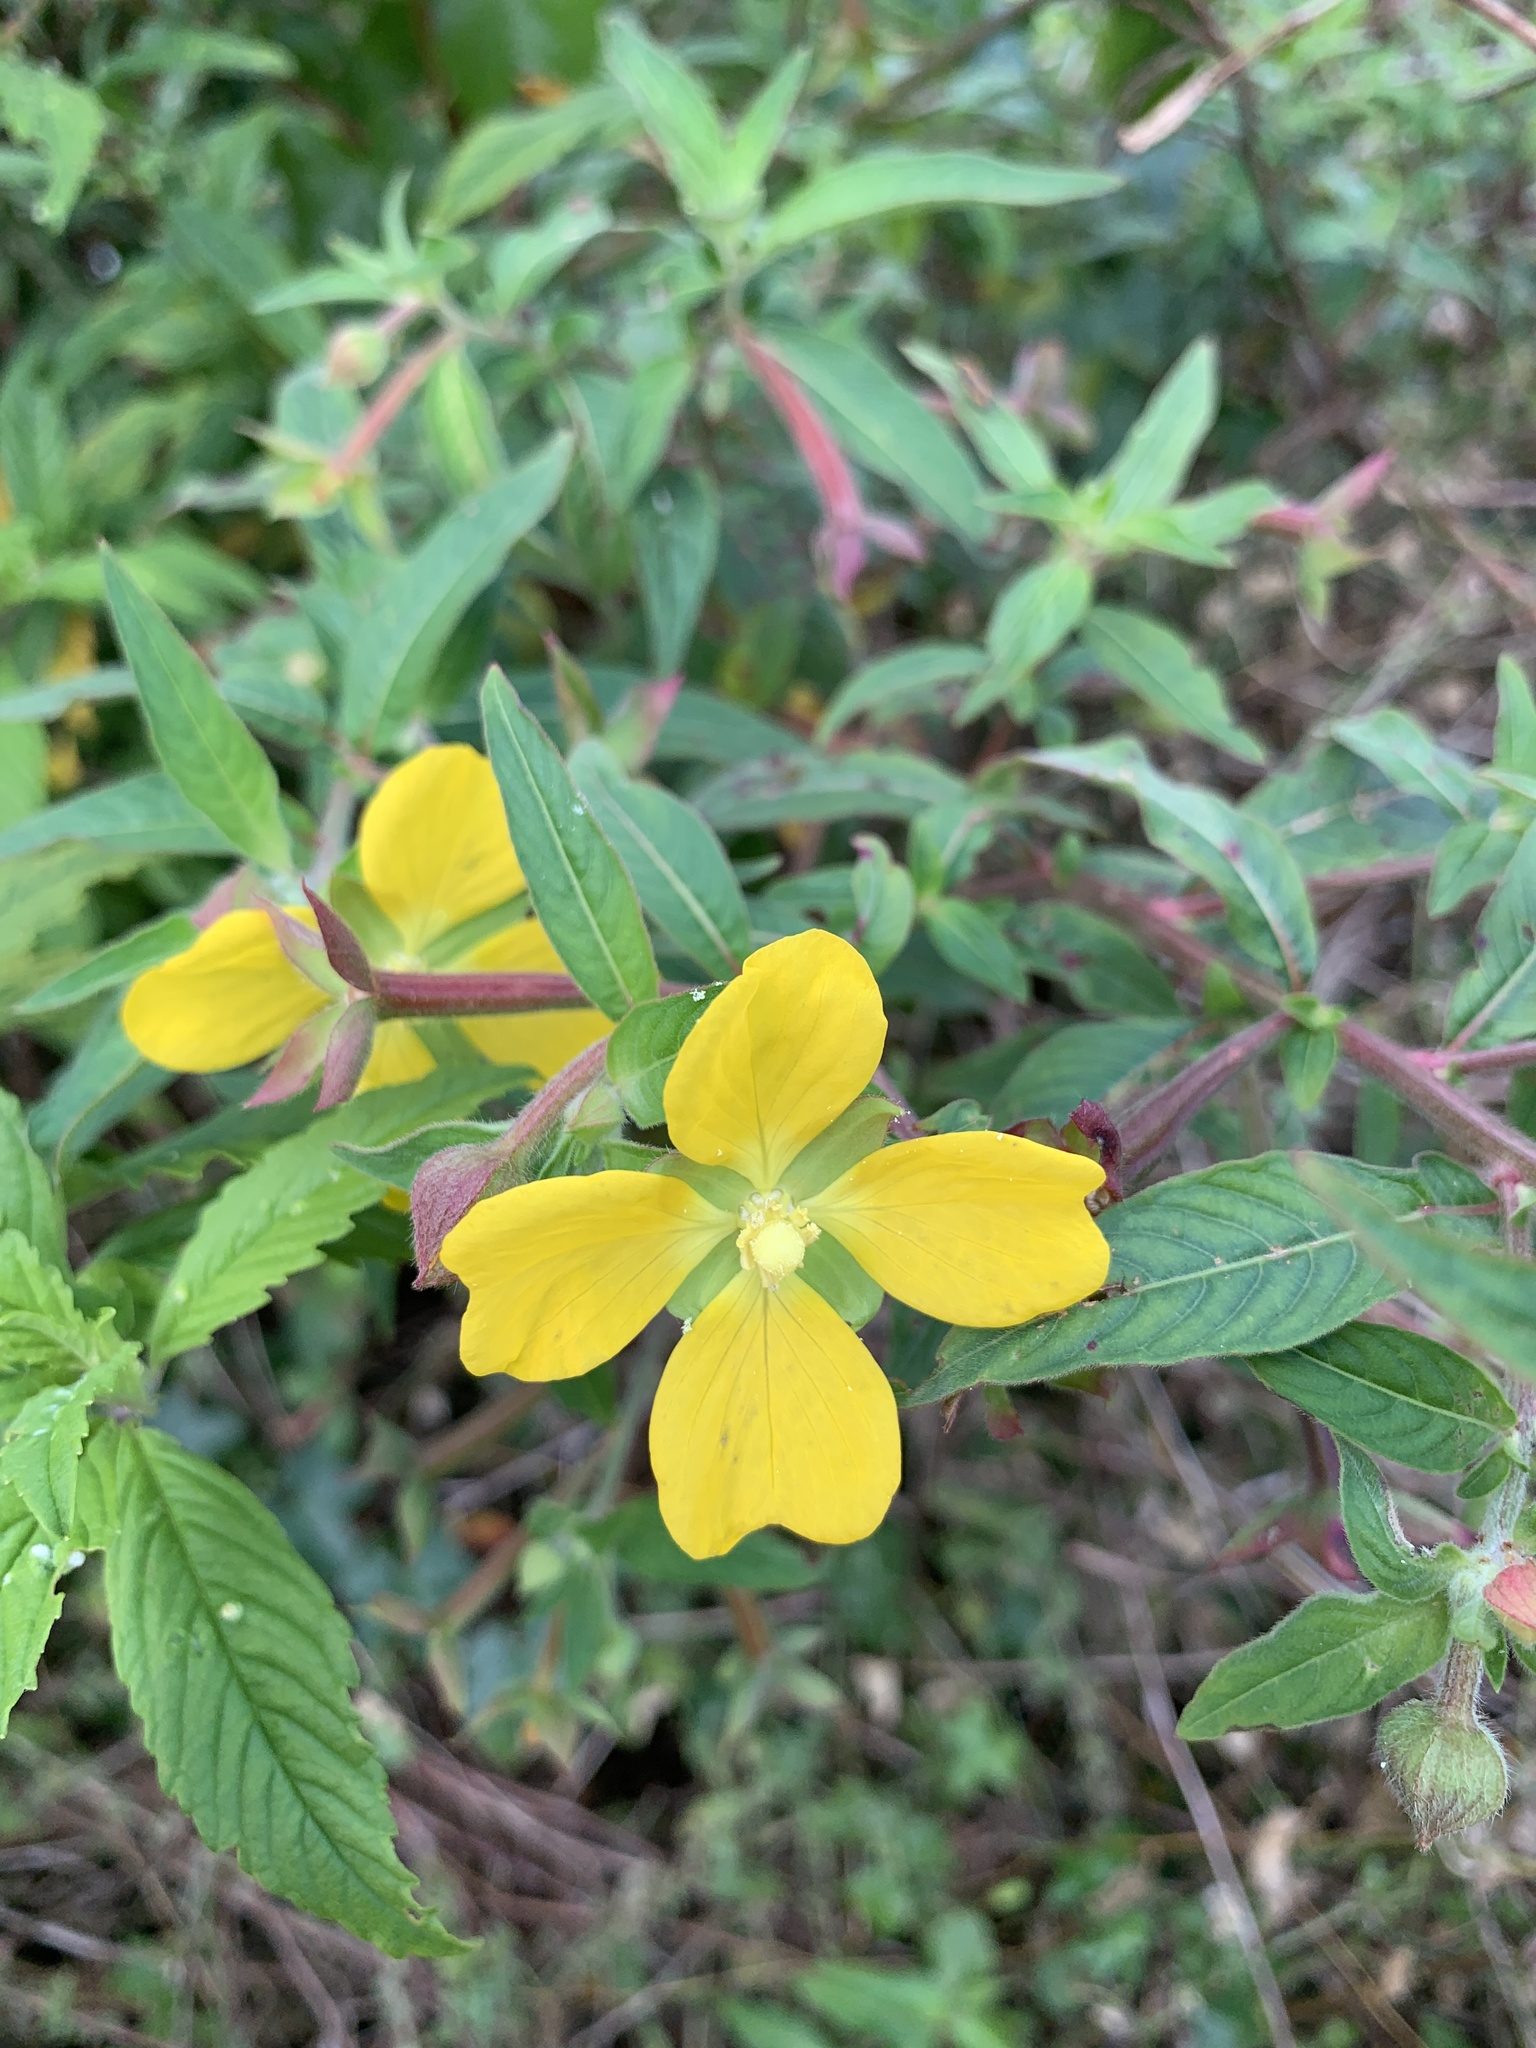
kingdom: Plantae
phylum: Tracheophyta
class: Magnoliopsida
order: Myrtales
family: Onagraceae
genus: Ludwigia
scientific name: Ludwigia octovalvis
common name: Water-primrose
